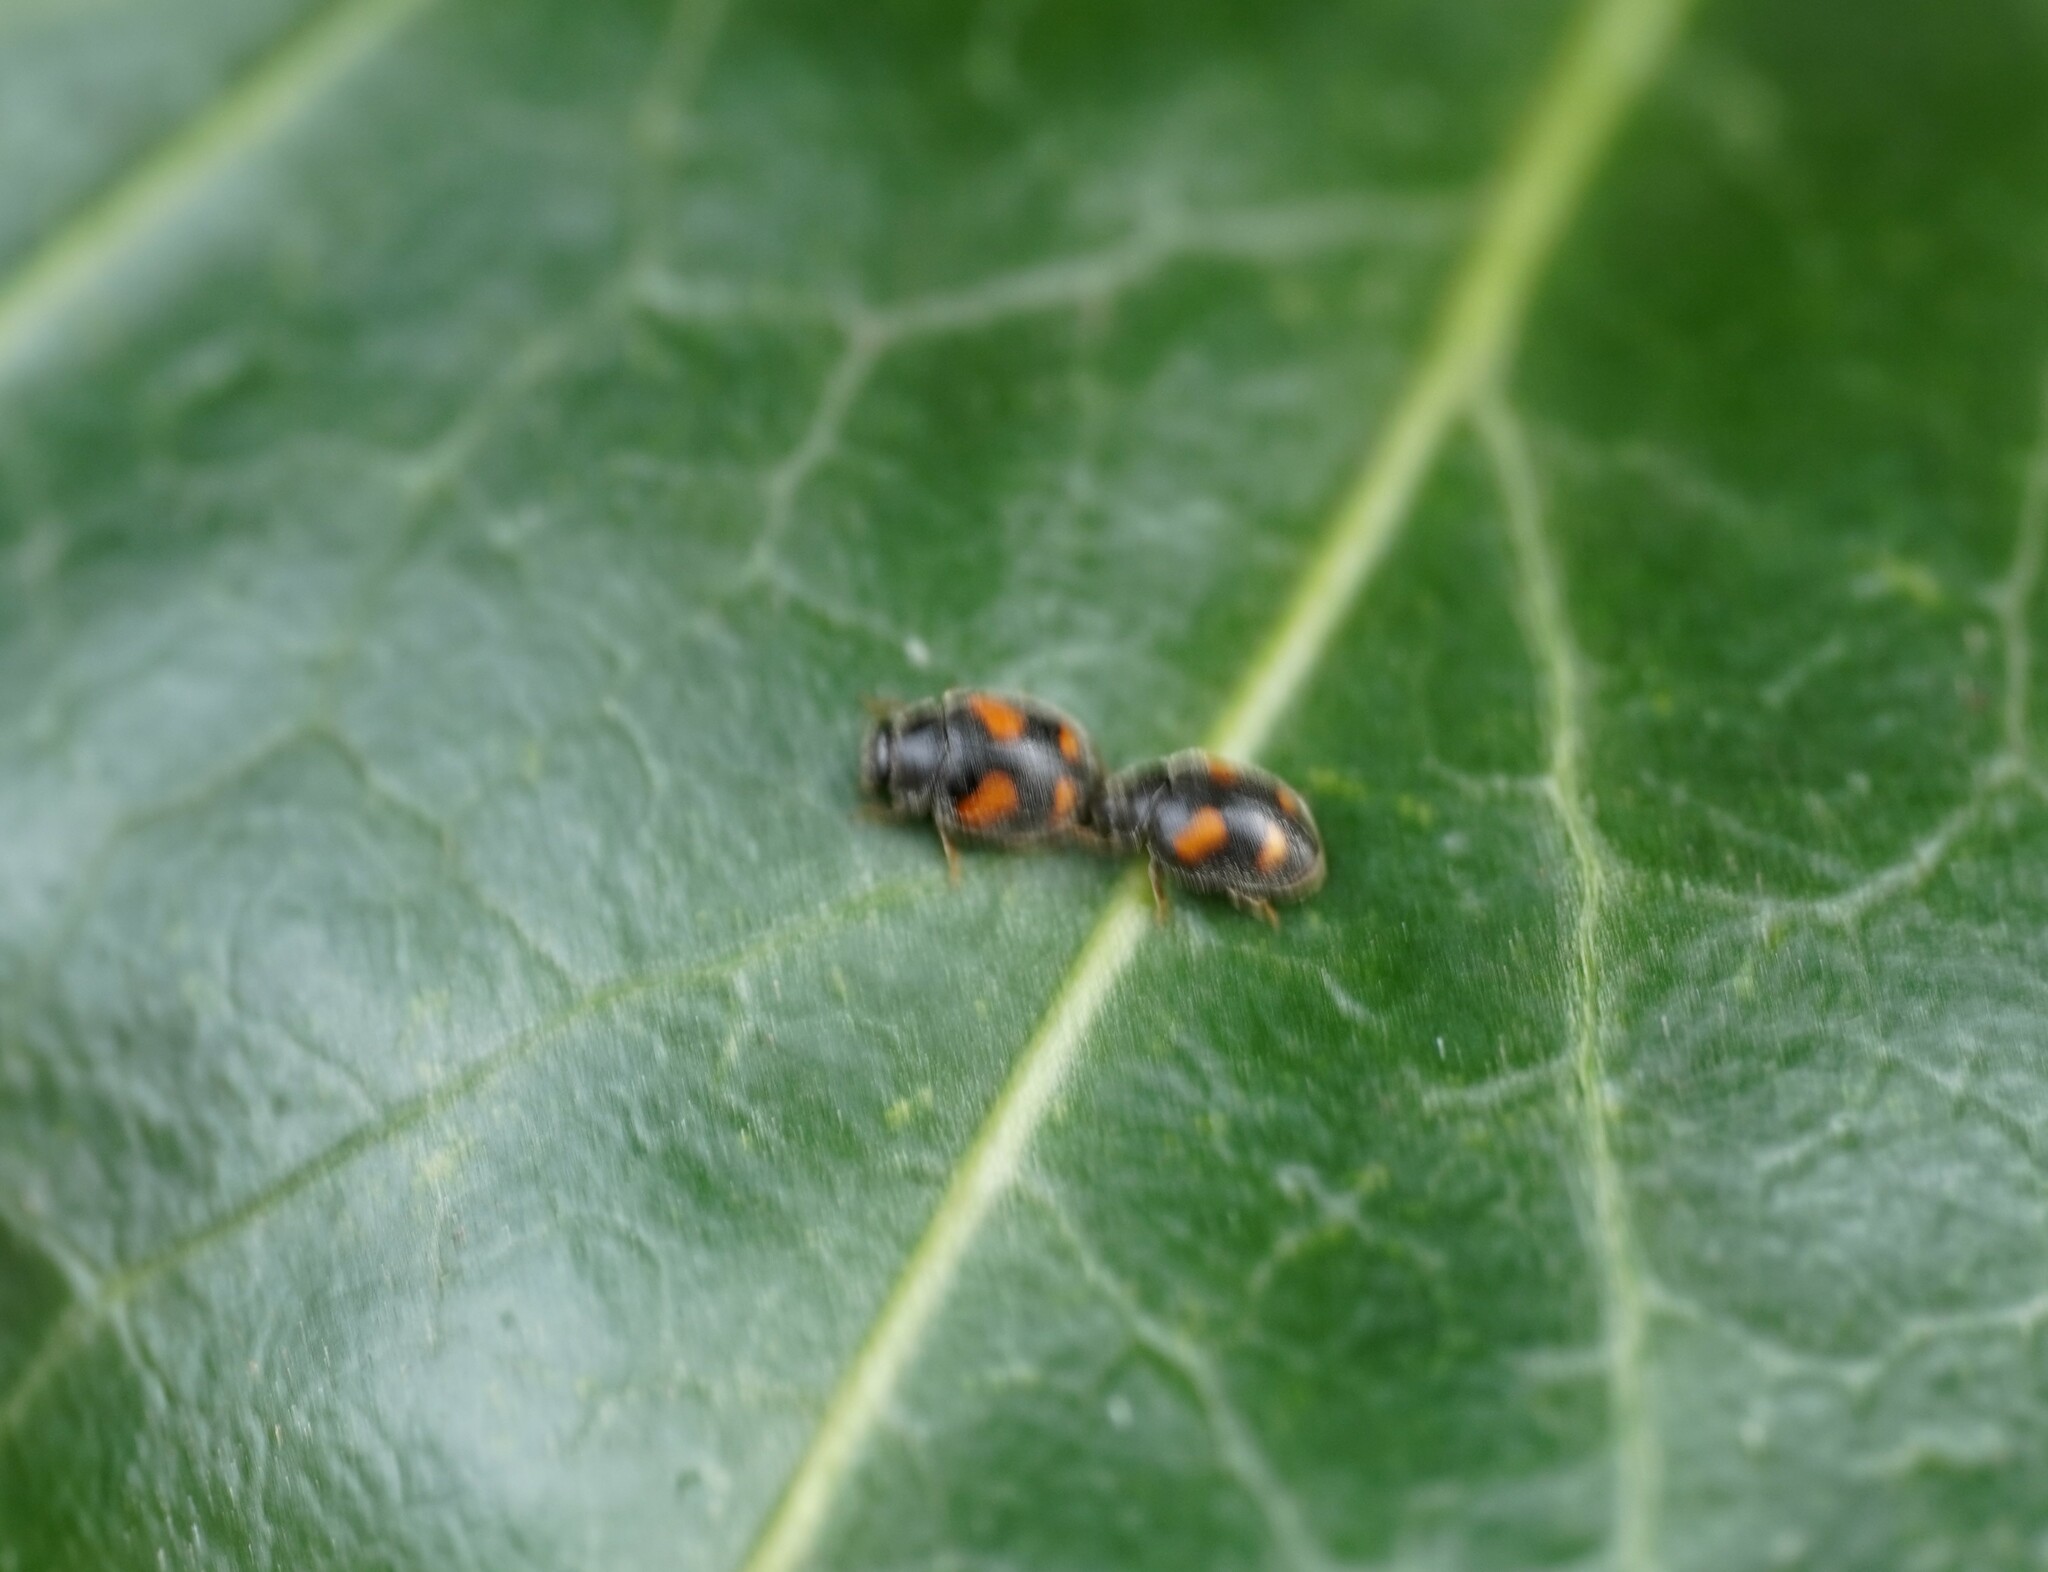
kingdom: Animalia
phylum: Arthropoda
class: Insecta
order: Coleoptera
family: Coccinellidae
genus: Nephus
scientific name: Nephus quadrimaculatus
